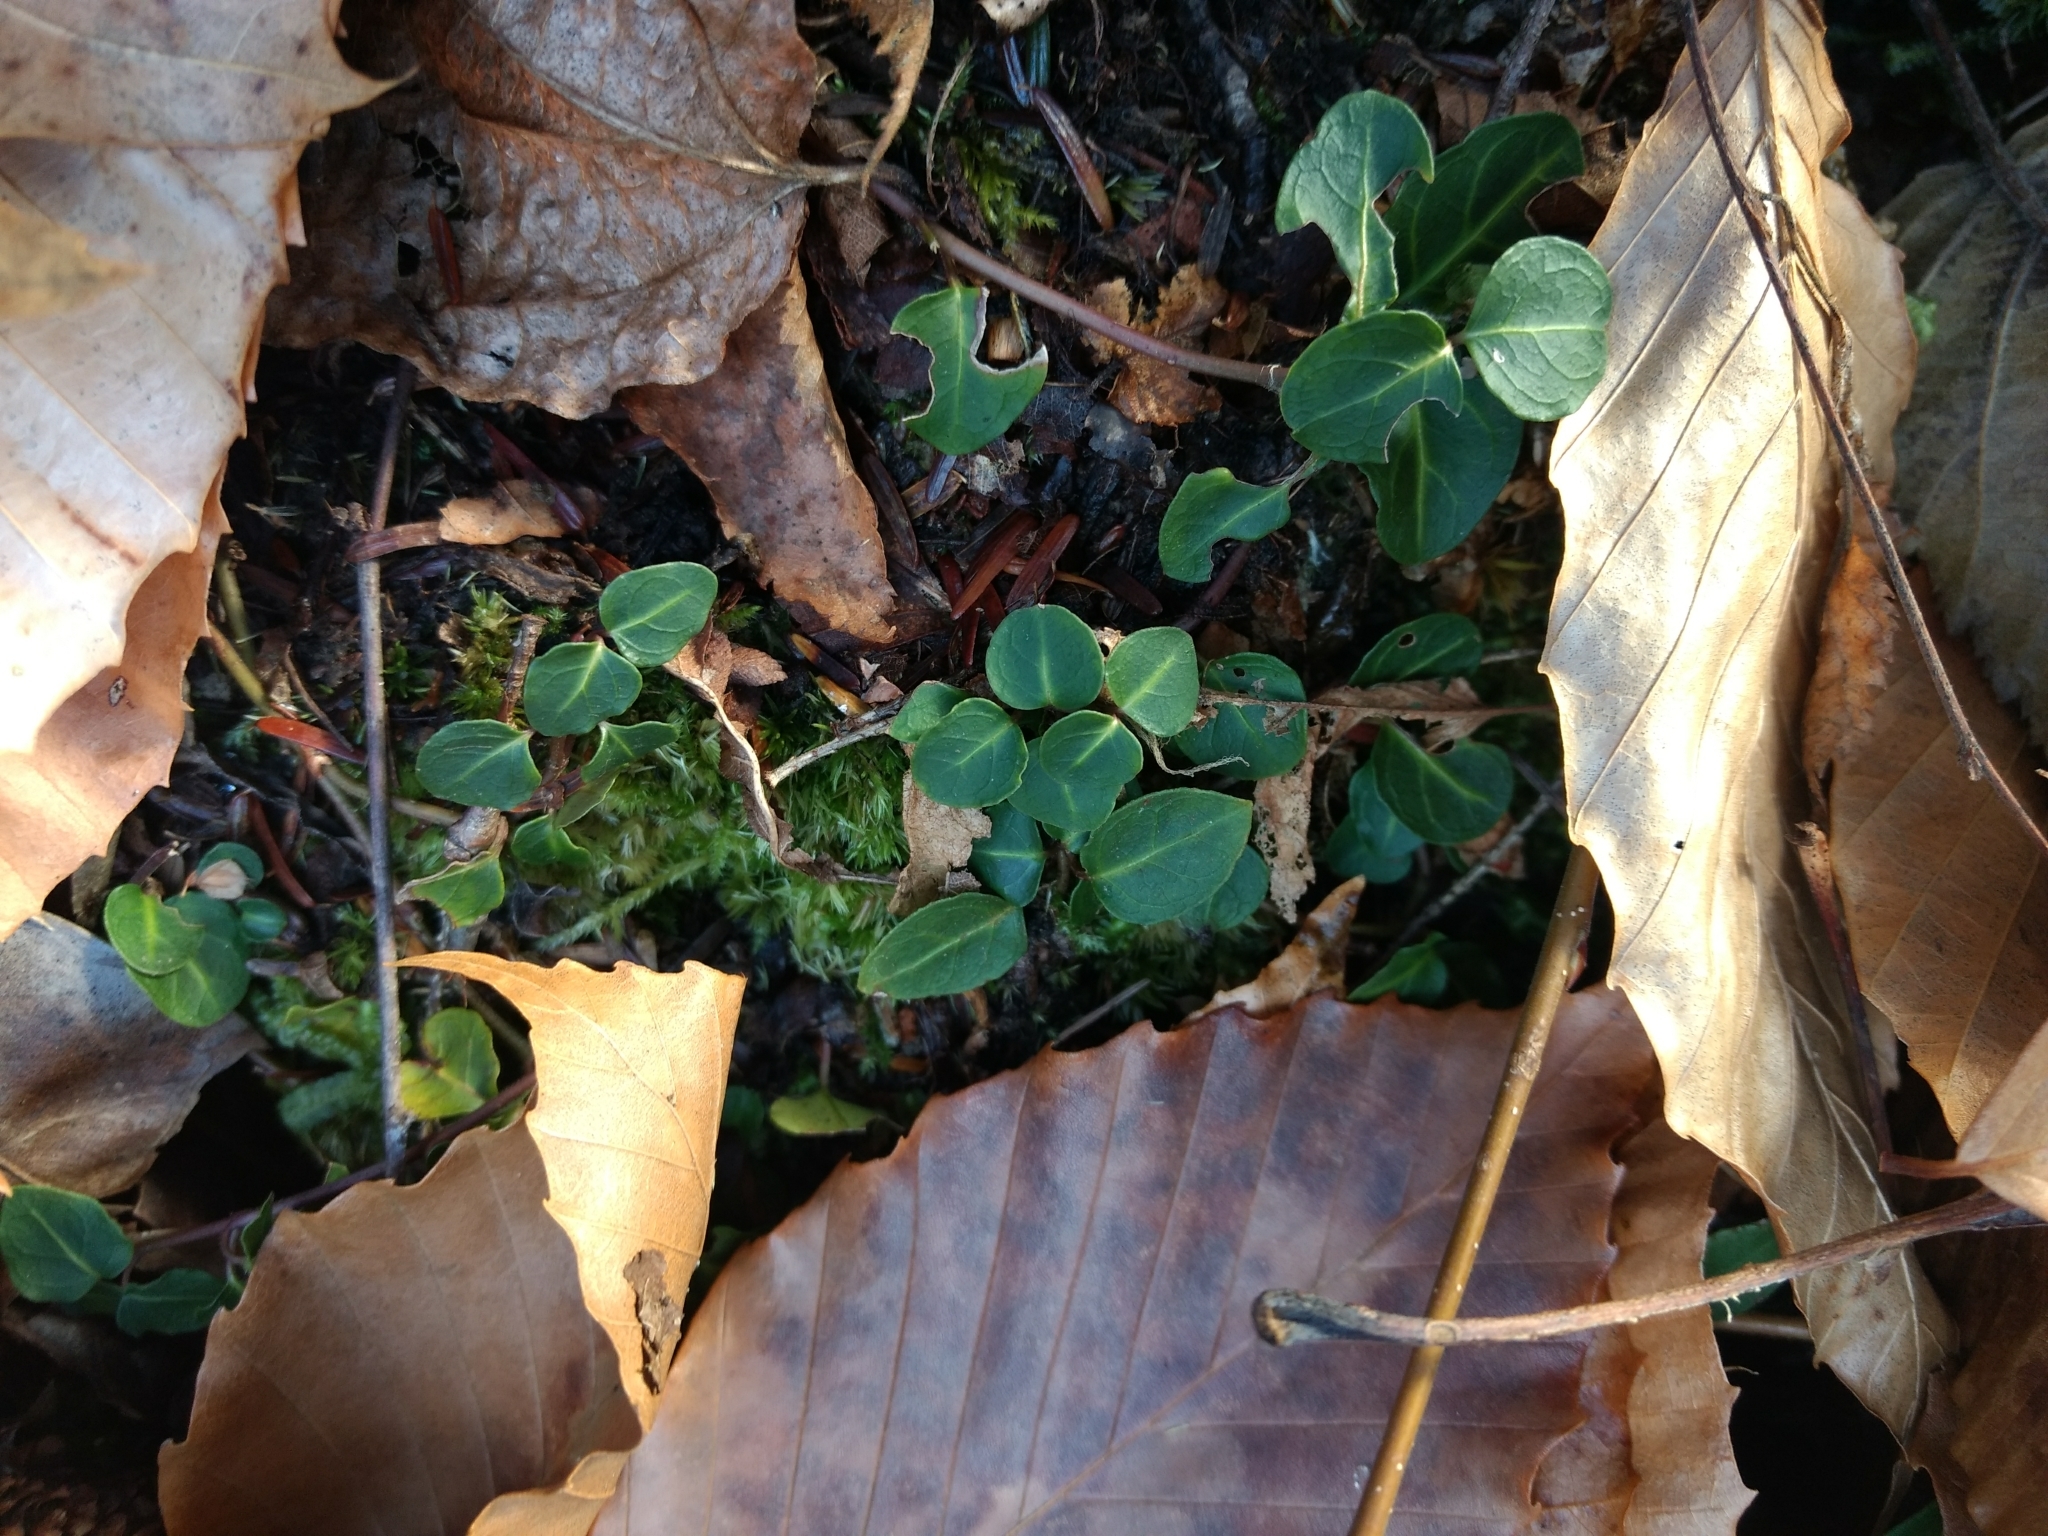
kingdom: Plantae
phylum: Tracheophyta
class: Magnoliopsida
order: Gentianales
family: Rubiaceae
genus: Mitchella
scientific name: Mitchella repens
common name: Partridge-berry
